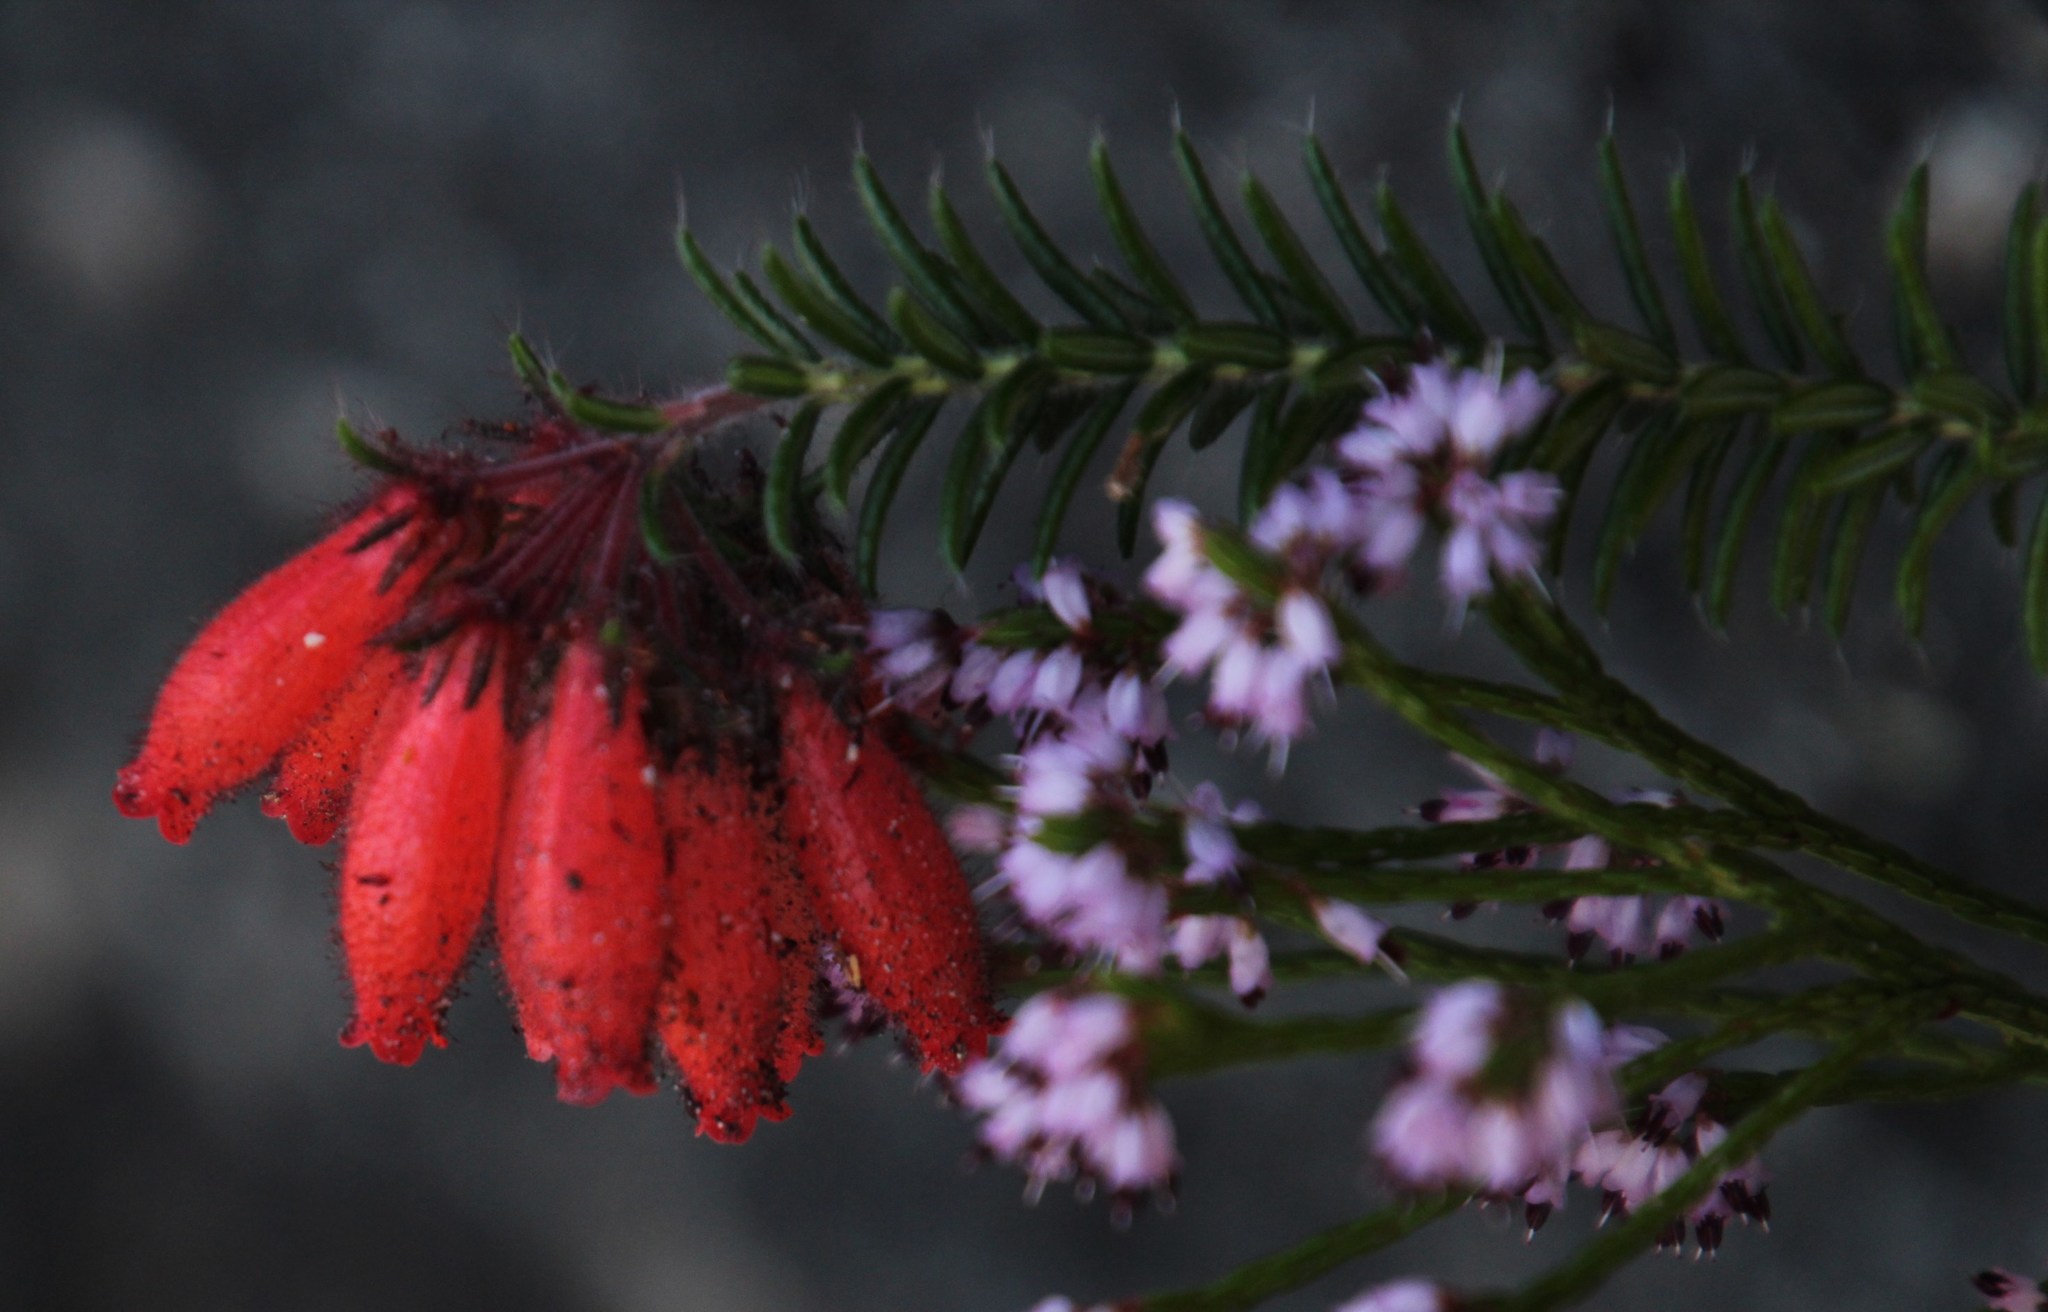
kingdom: Plantae
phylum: Tracheophyta
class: Magnoliopsida
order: Ericales
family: Ericaceae
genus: Erica
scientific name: Erica cerinthoides
